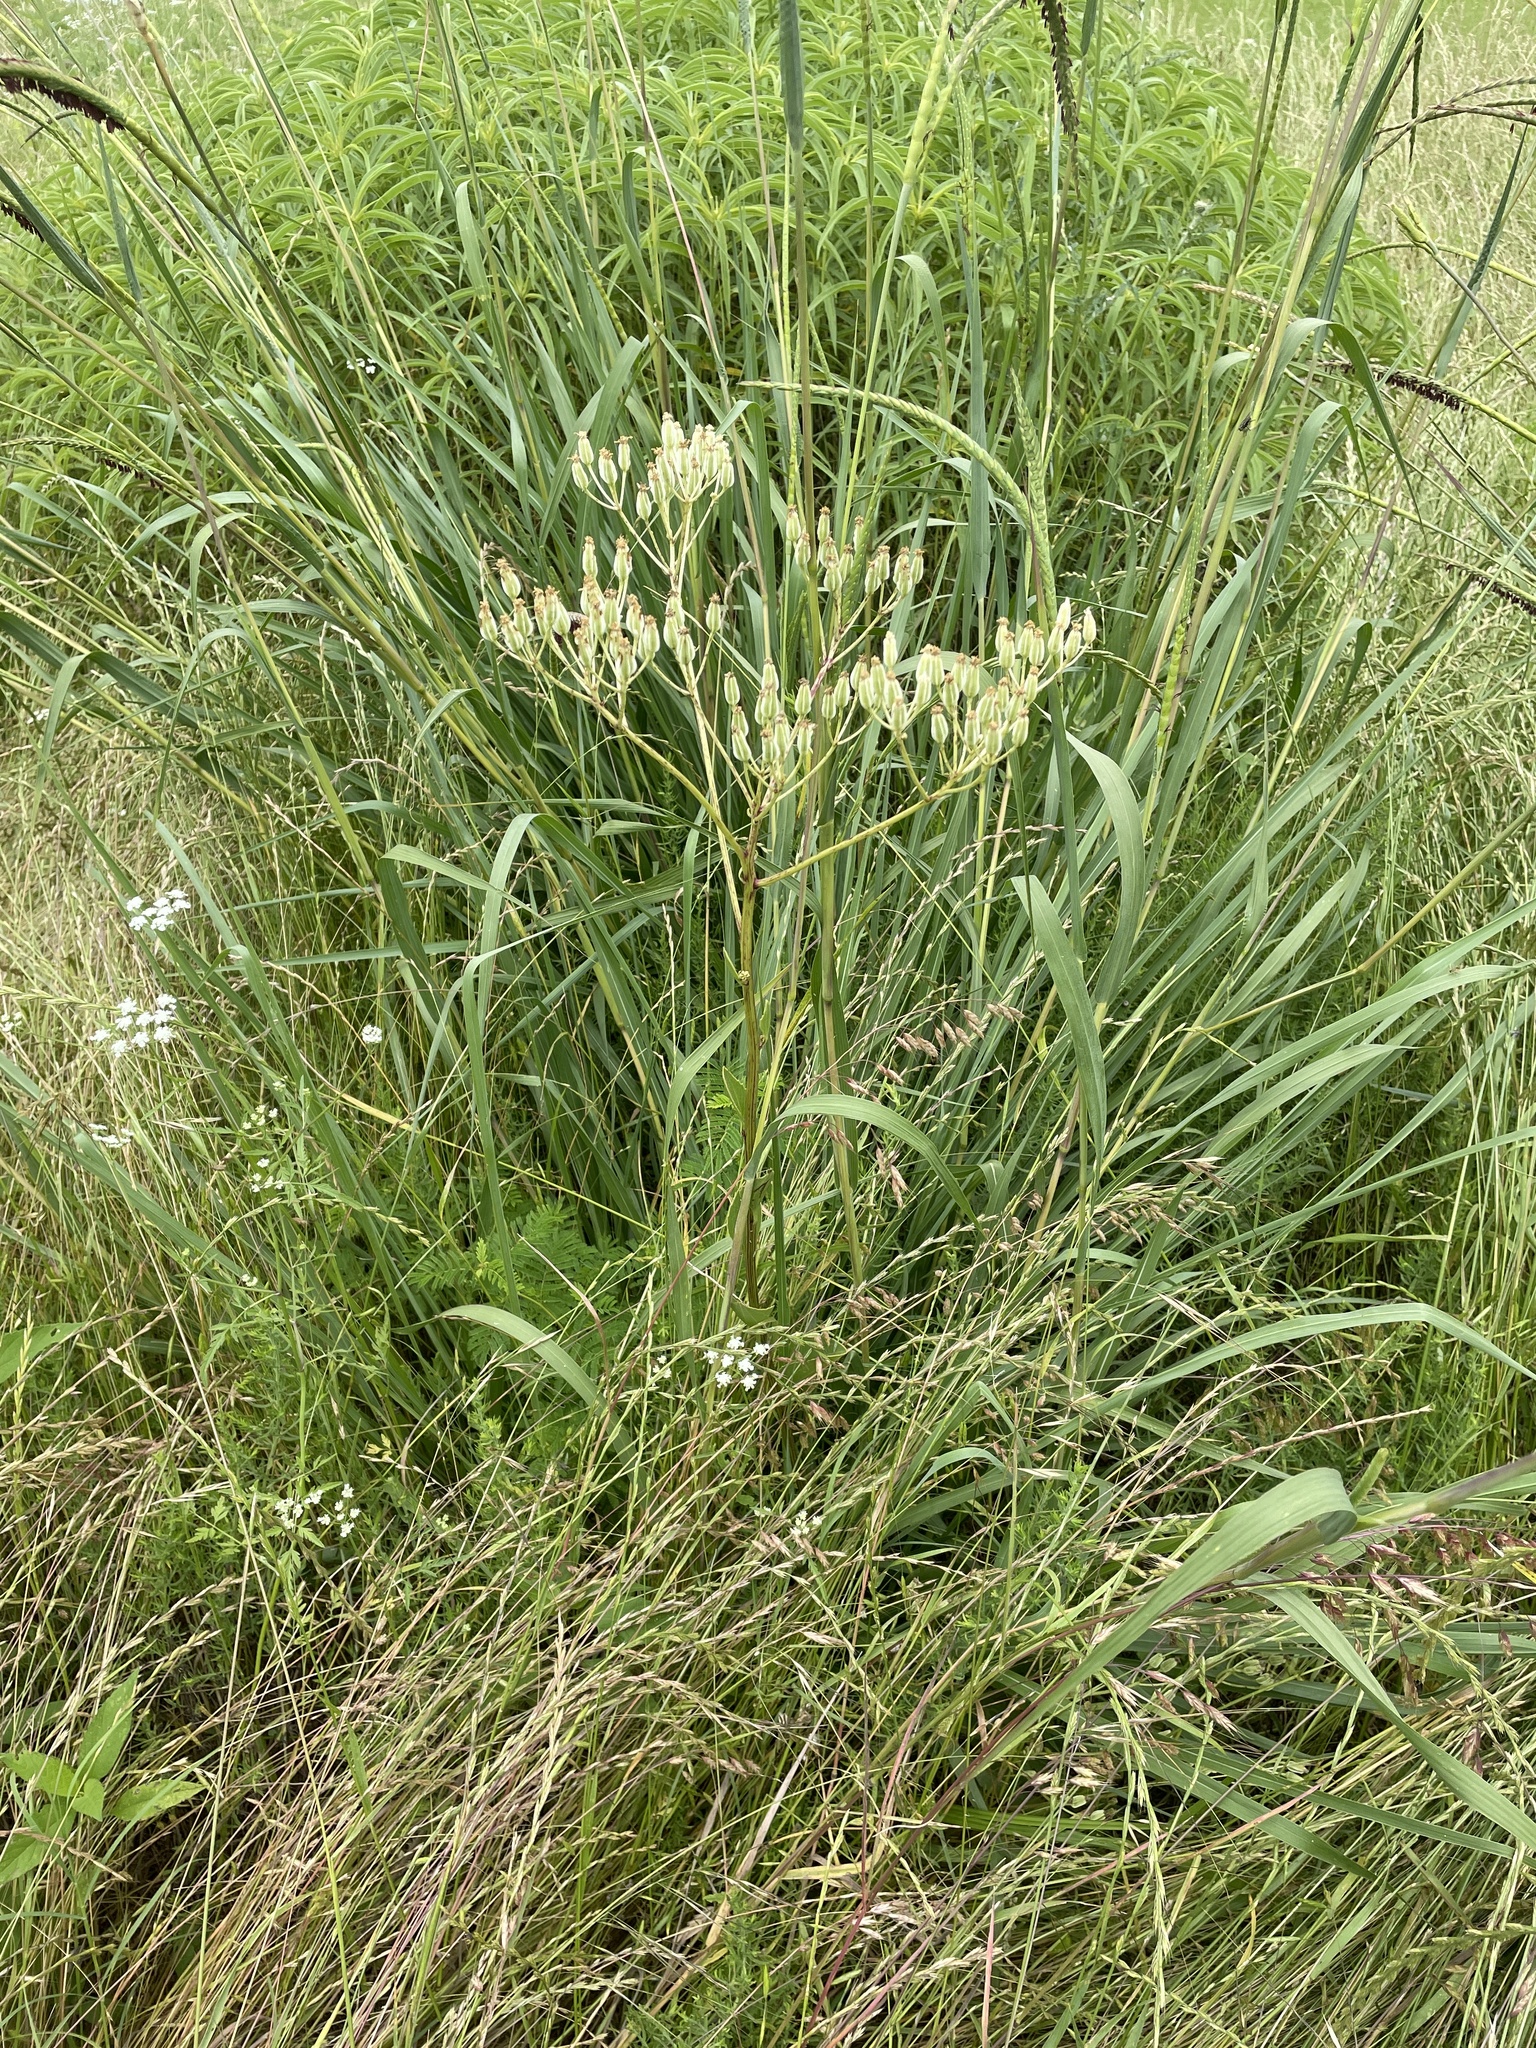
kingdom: Plantae
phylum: Tracheophyta
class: Magnoliopsida
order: Asterales
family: Asteraceae
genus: Arnoglossum
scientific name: Arnoglossum plantagineum
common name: Groove-stemmed indian-plantain
